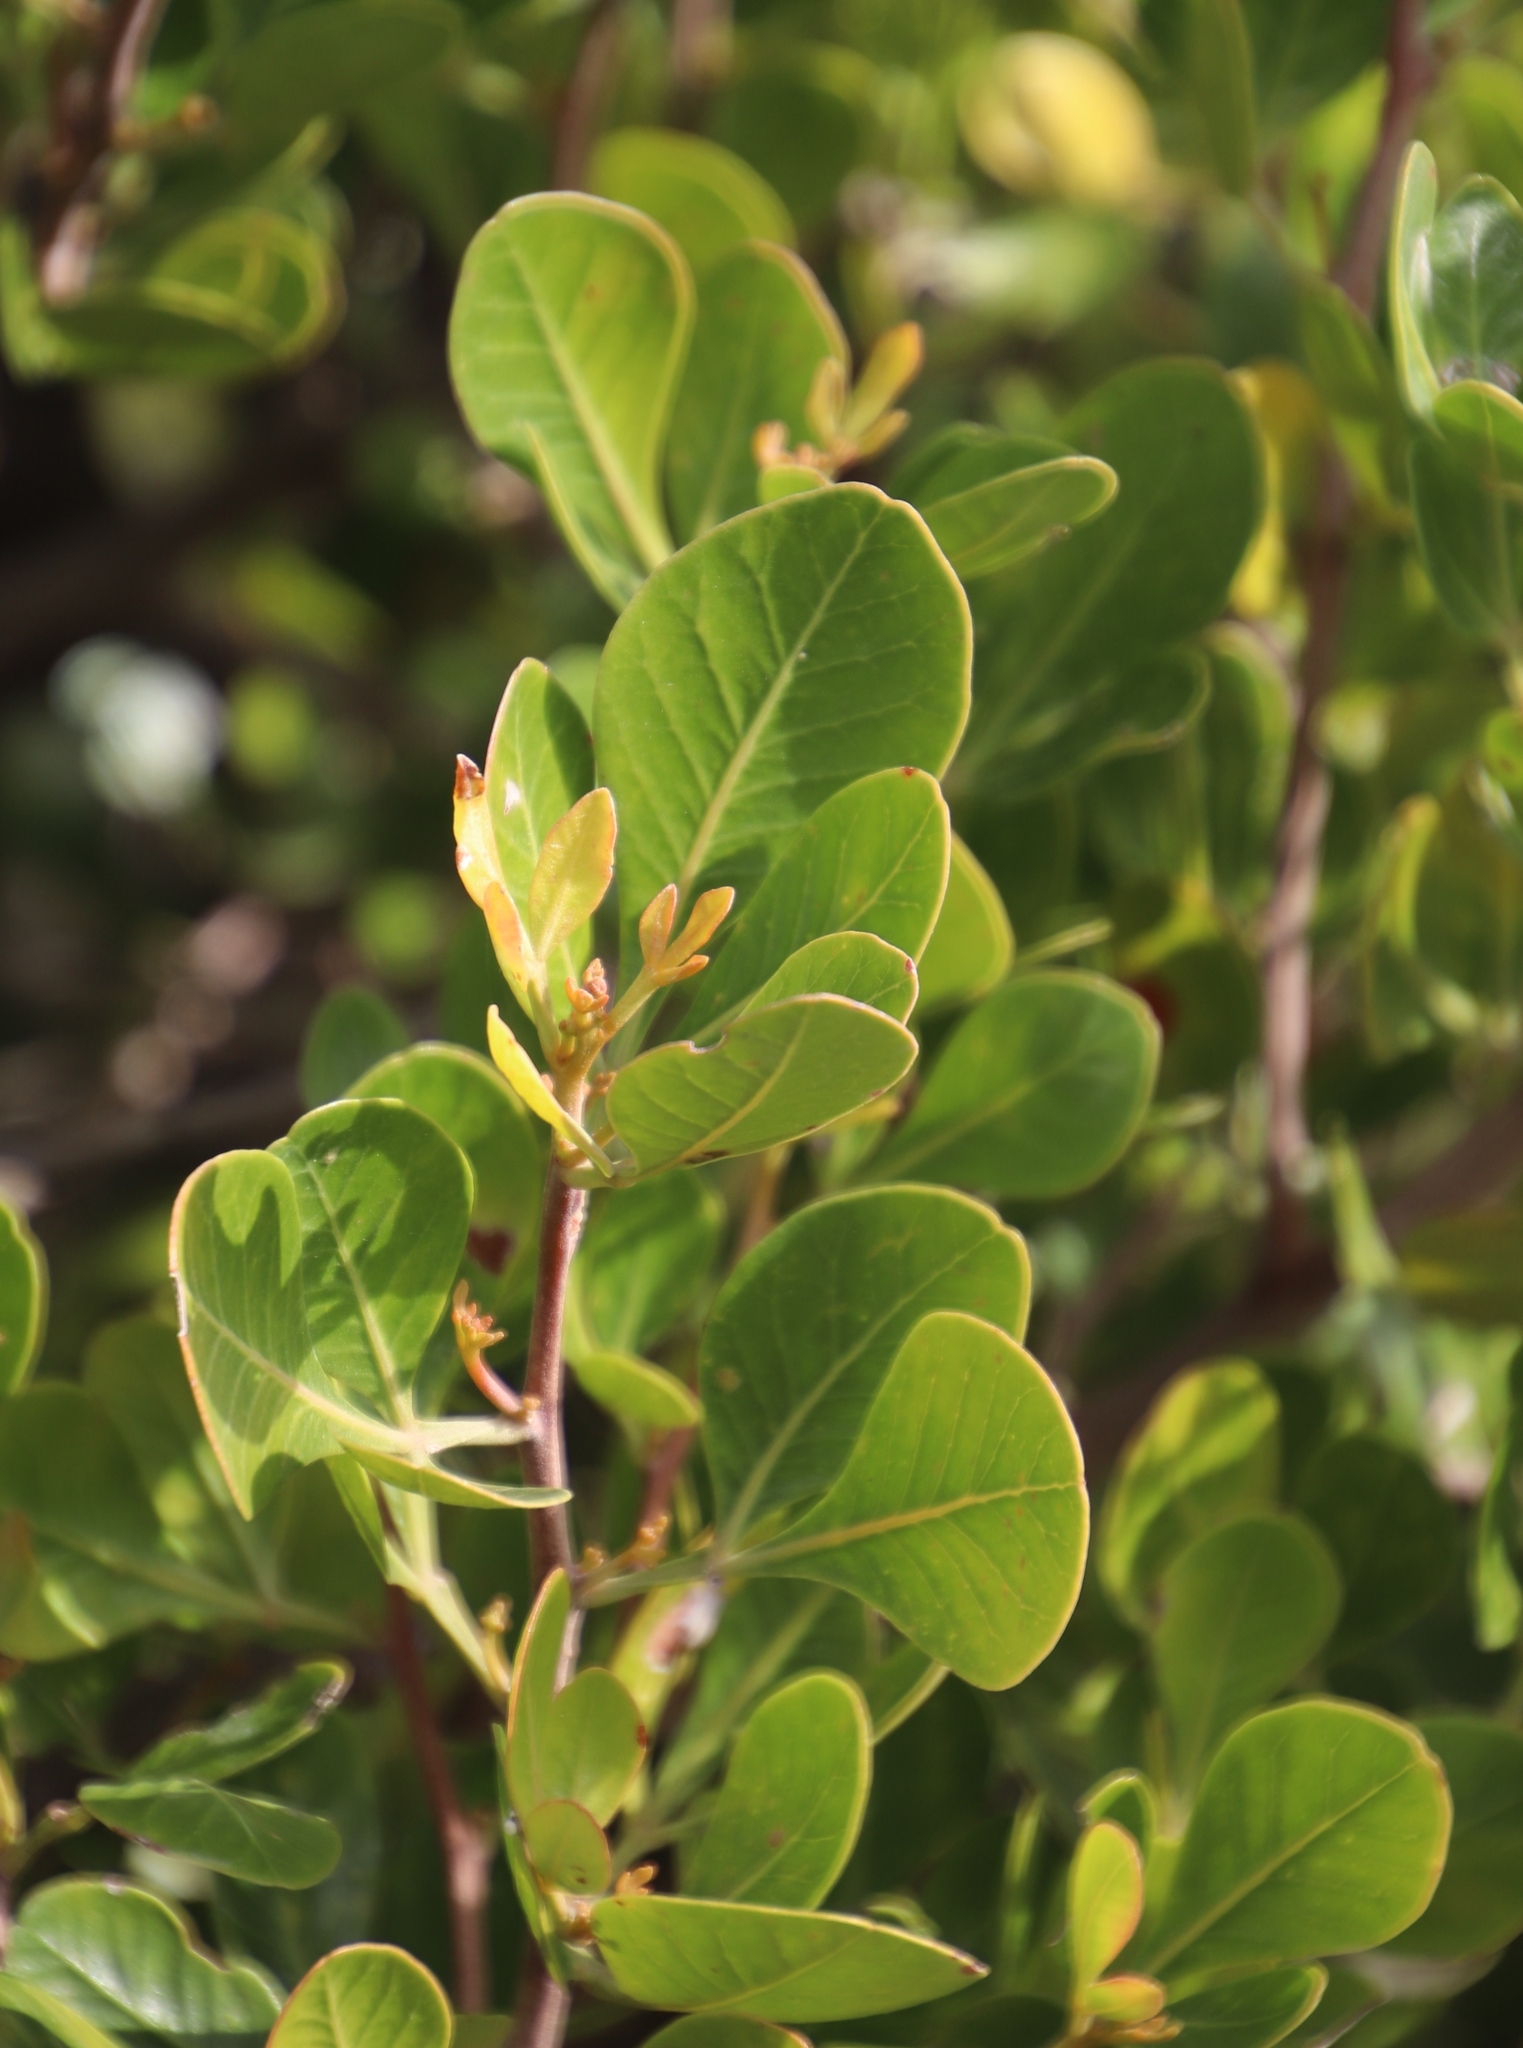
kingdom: Plantae
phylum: Tracheophyta
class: Magnoliopsida
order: Sapindales
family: Anacardiaceae
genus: Searsia
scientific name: Searsia lucida
